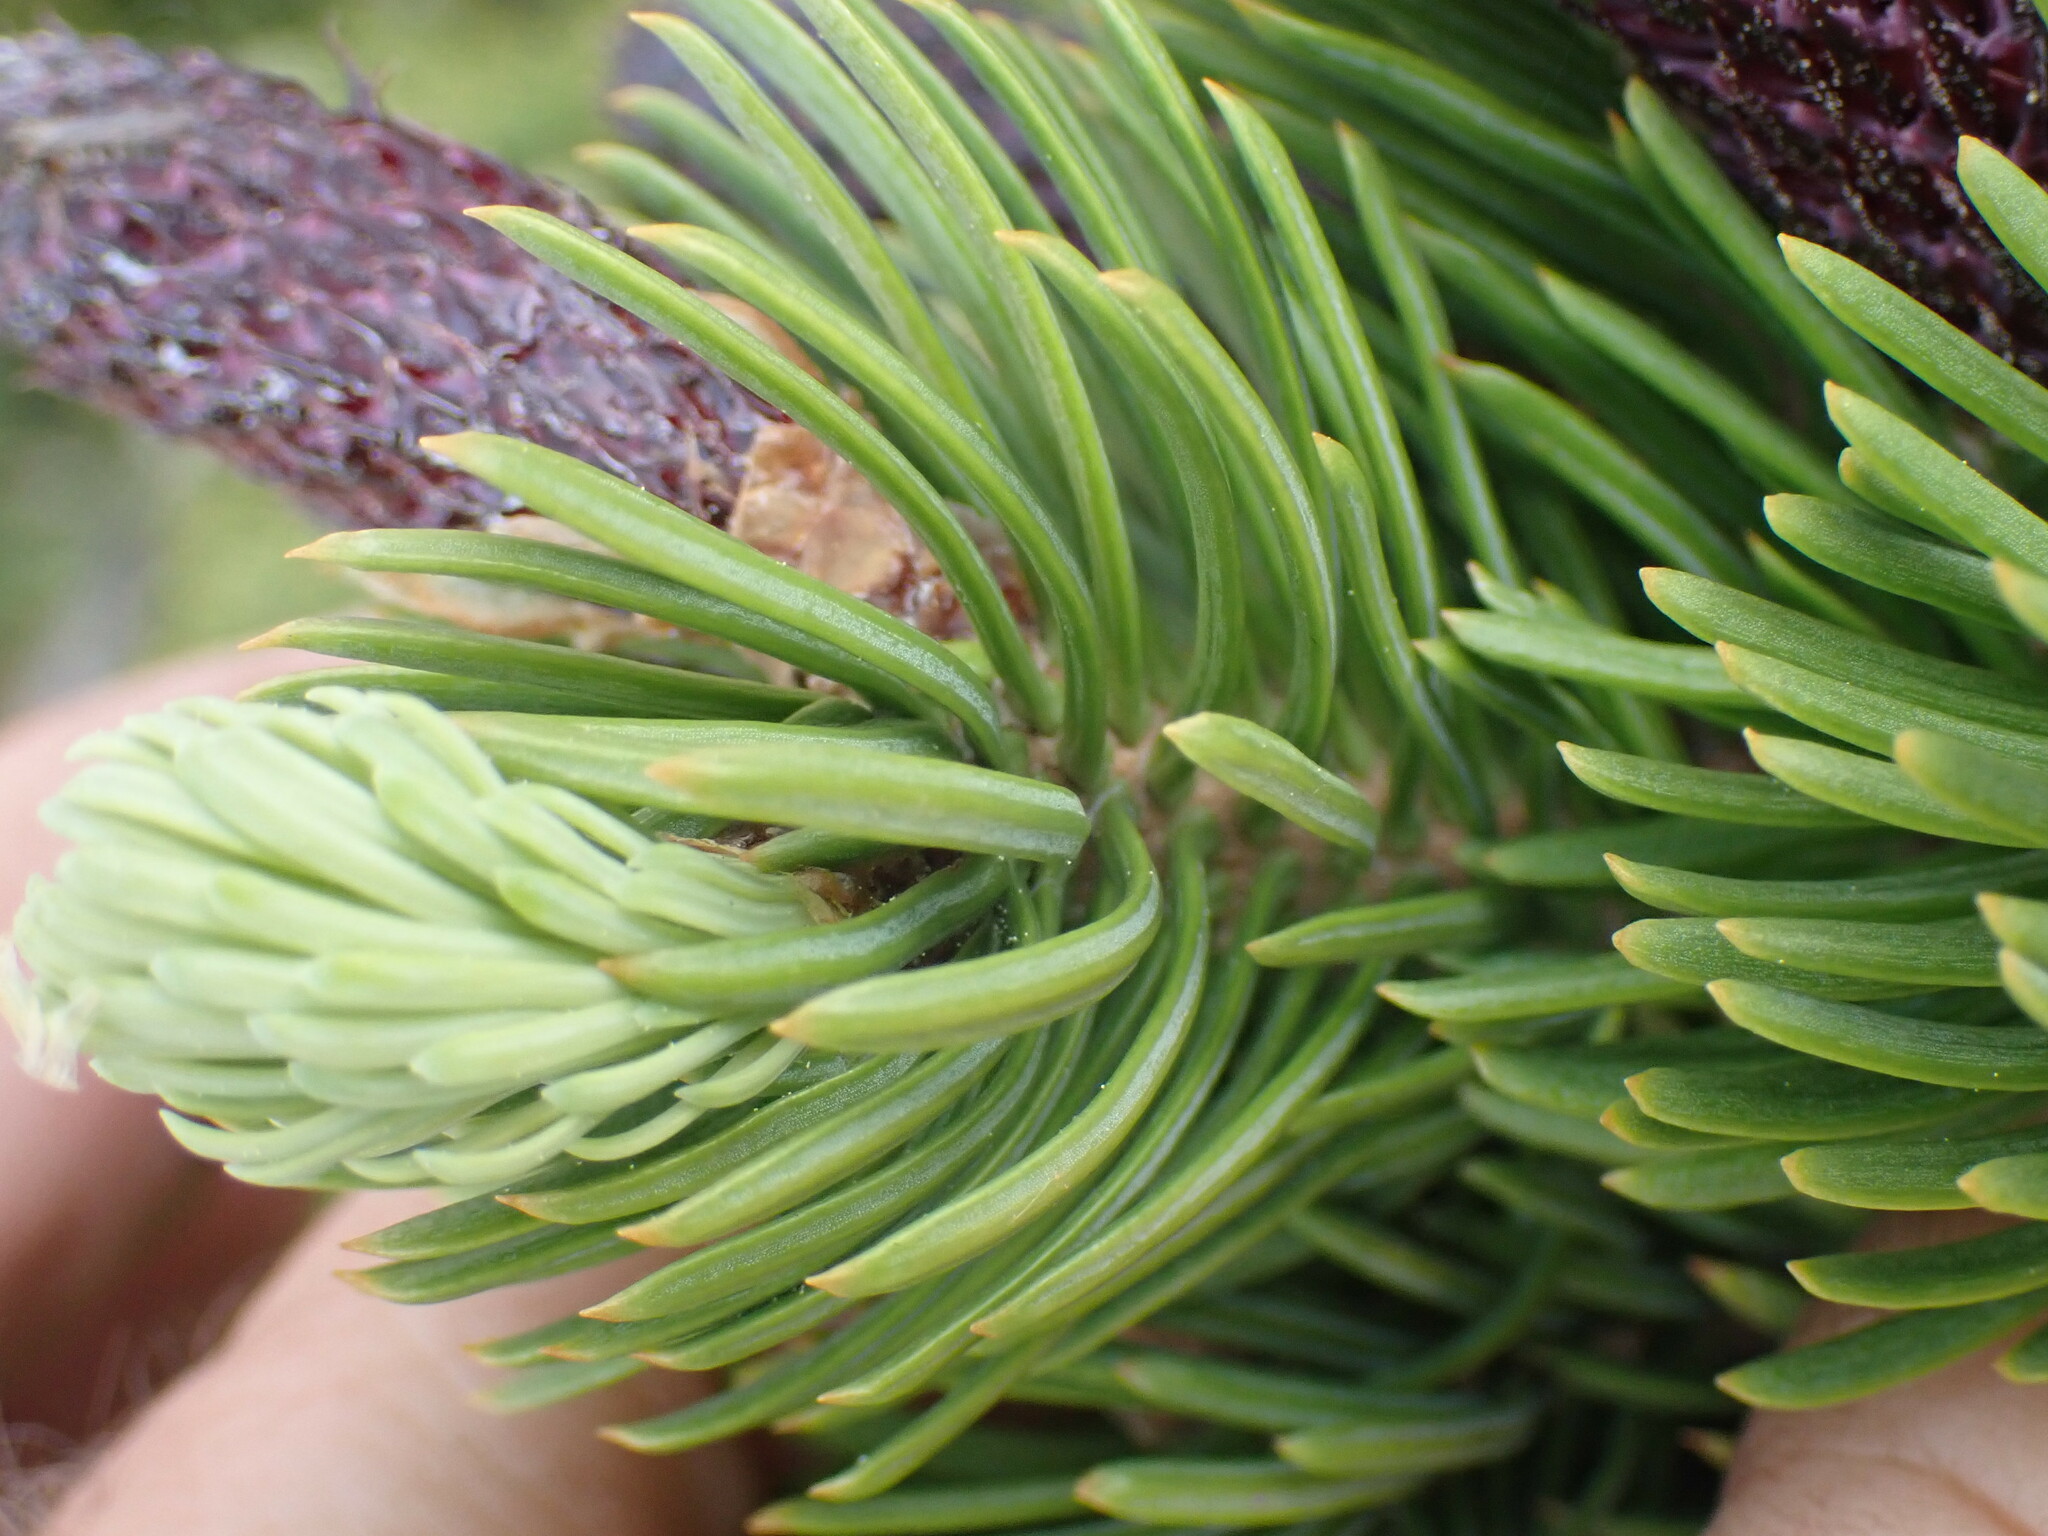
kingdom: Plantae
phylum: Tracheophyta
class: Pinopsida
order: Pinales
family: Pinaceae
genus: Abies
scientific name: Abies lasiocarpa
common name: Subalpine fir
